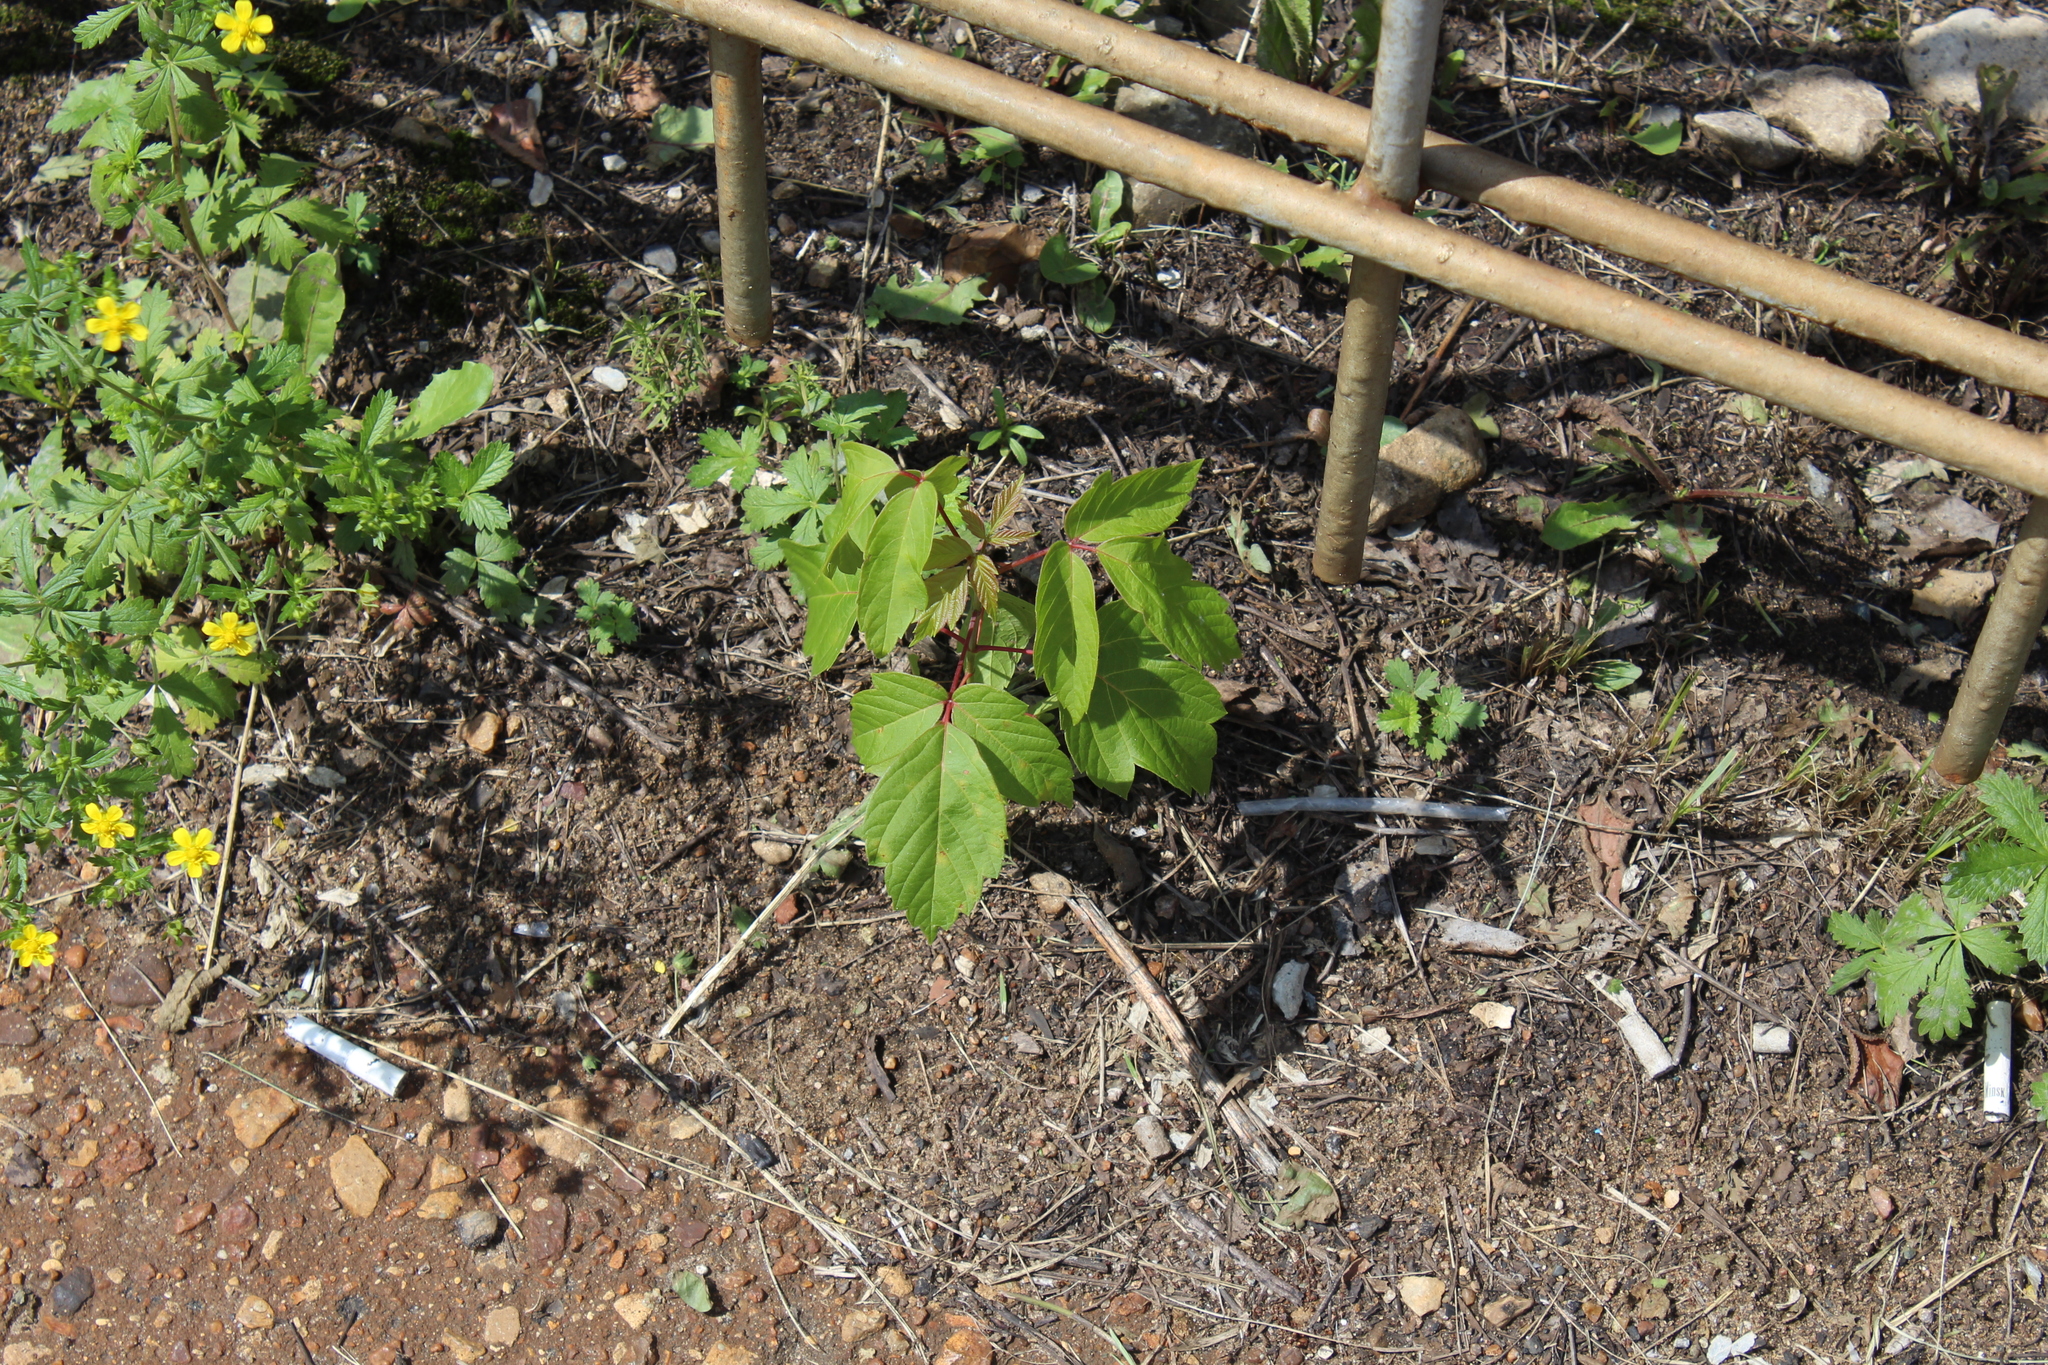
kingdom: Plantae
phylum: Tracheophyta
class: Magnoliopsida
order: Sapindales
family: Sapindaceae
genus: Acer
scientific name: Acer negundo
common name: Ashleaf maple
